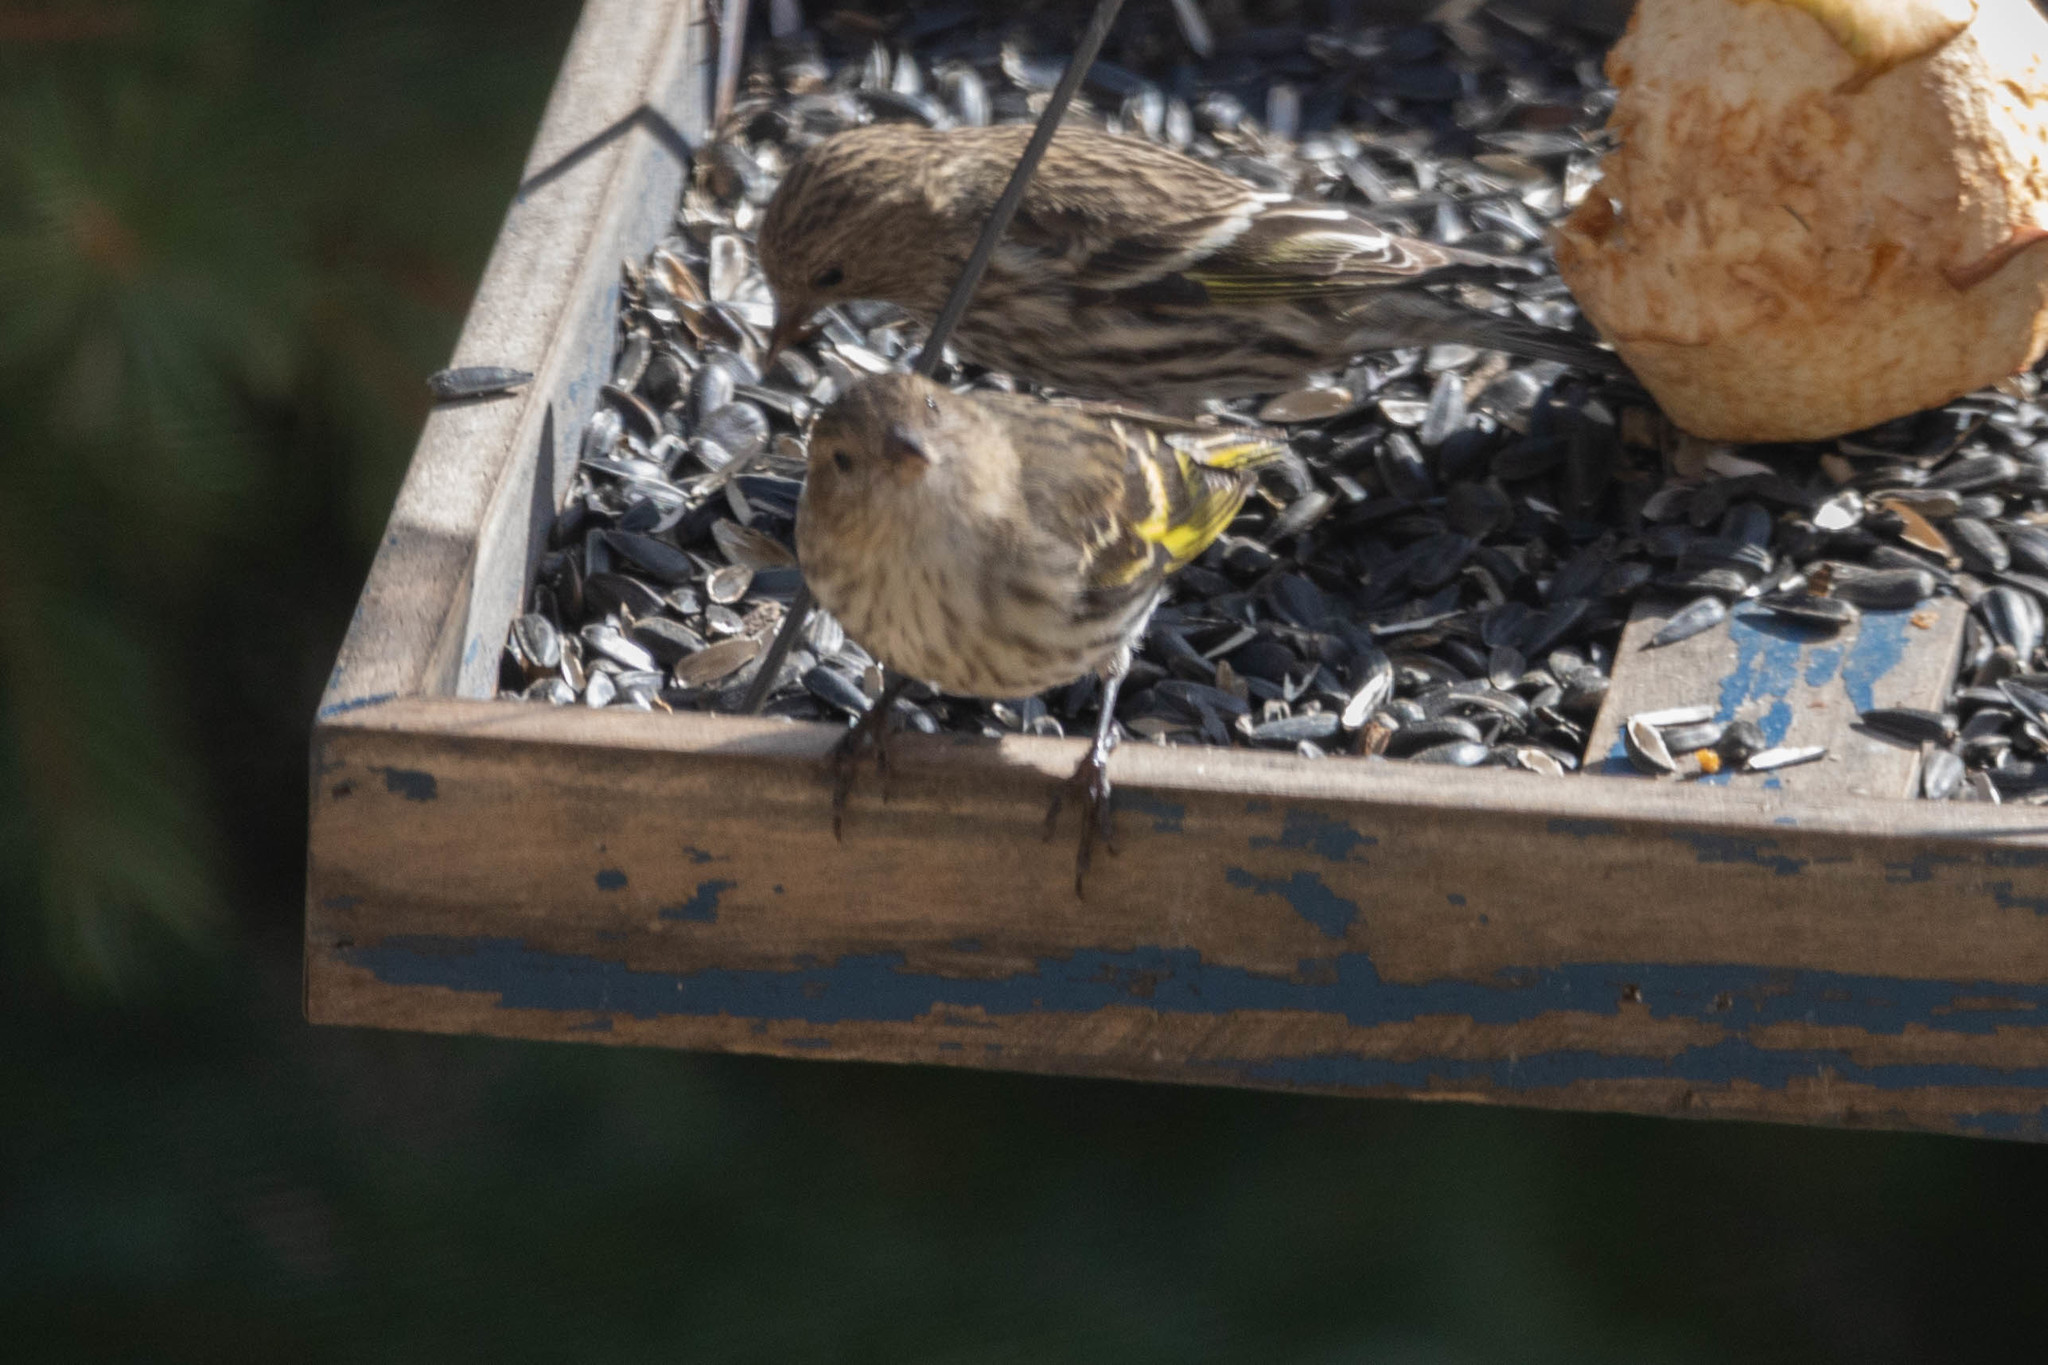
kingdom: Animalia
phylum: Chordata
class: Aves
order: Passeriformes
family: Fringillidae
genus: Spinus
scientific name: Spinus pinus
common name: Pine siskin
